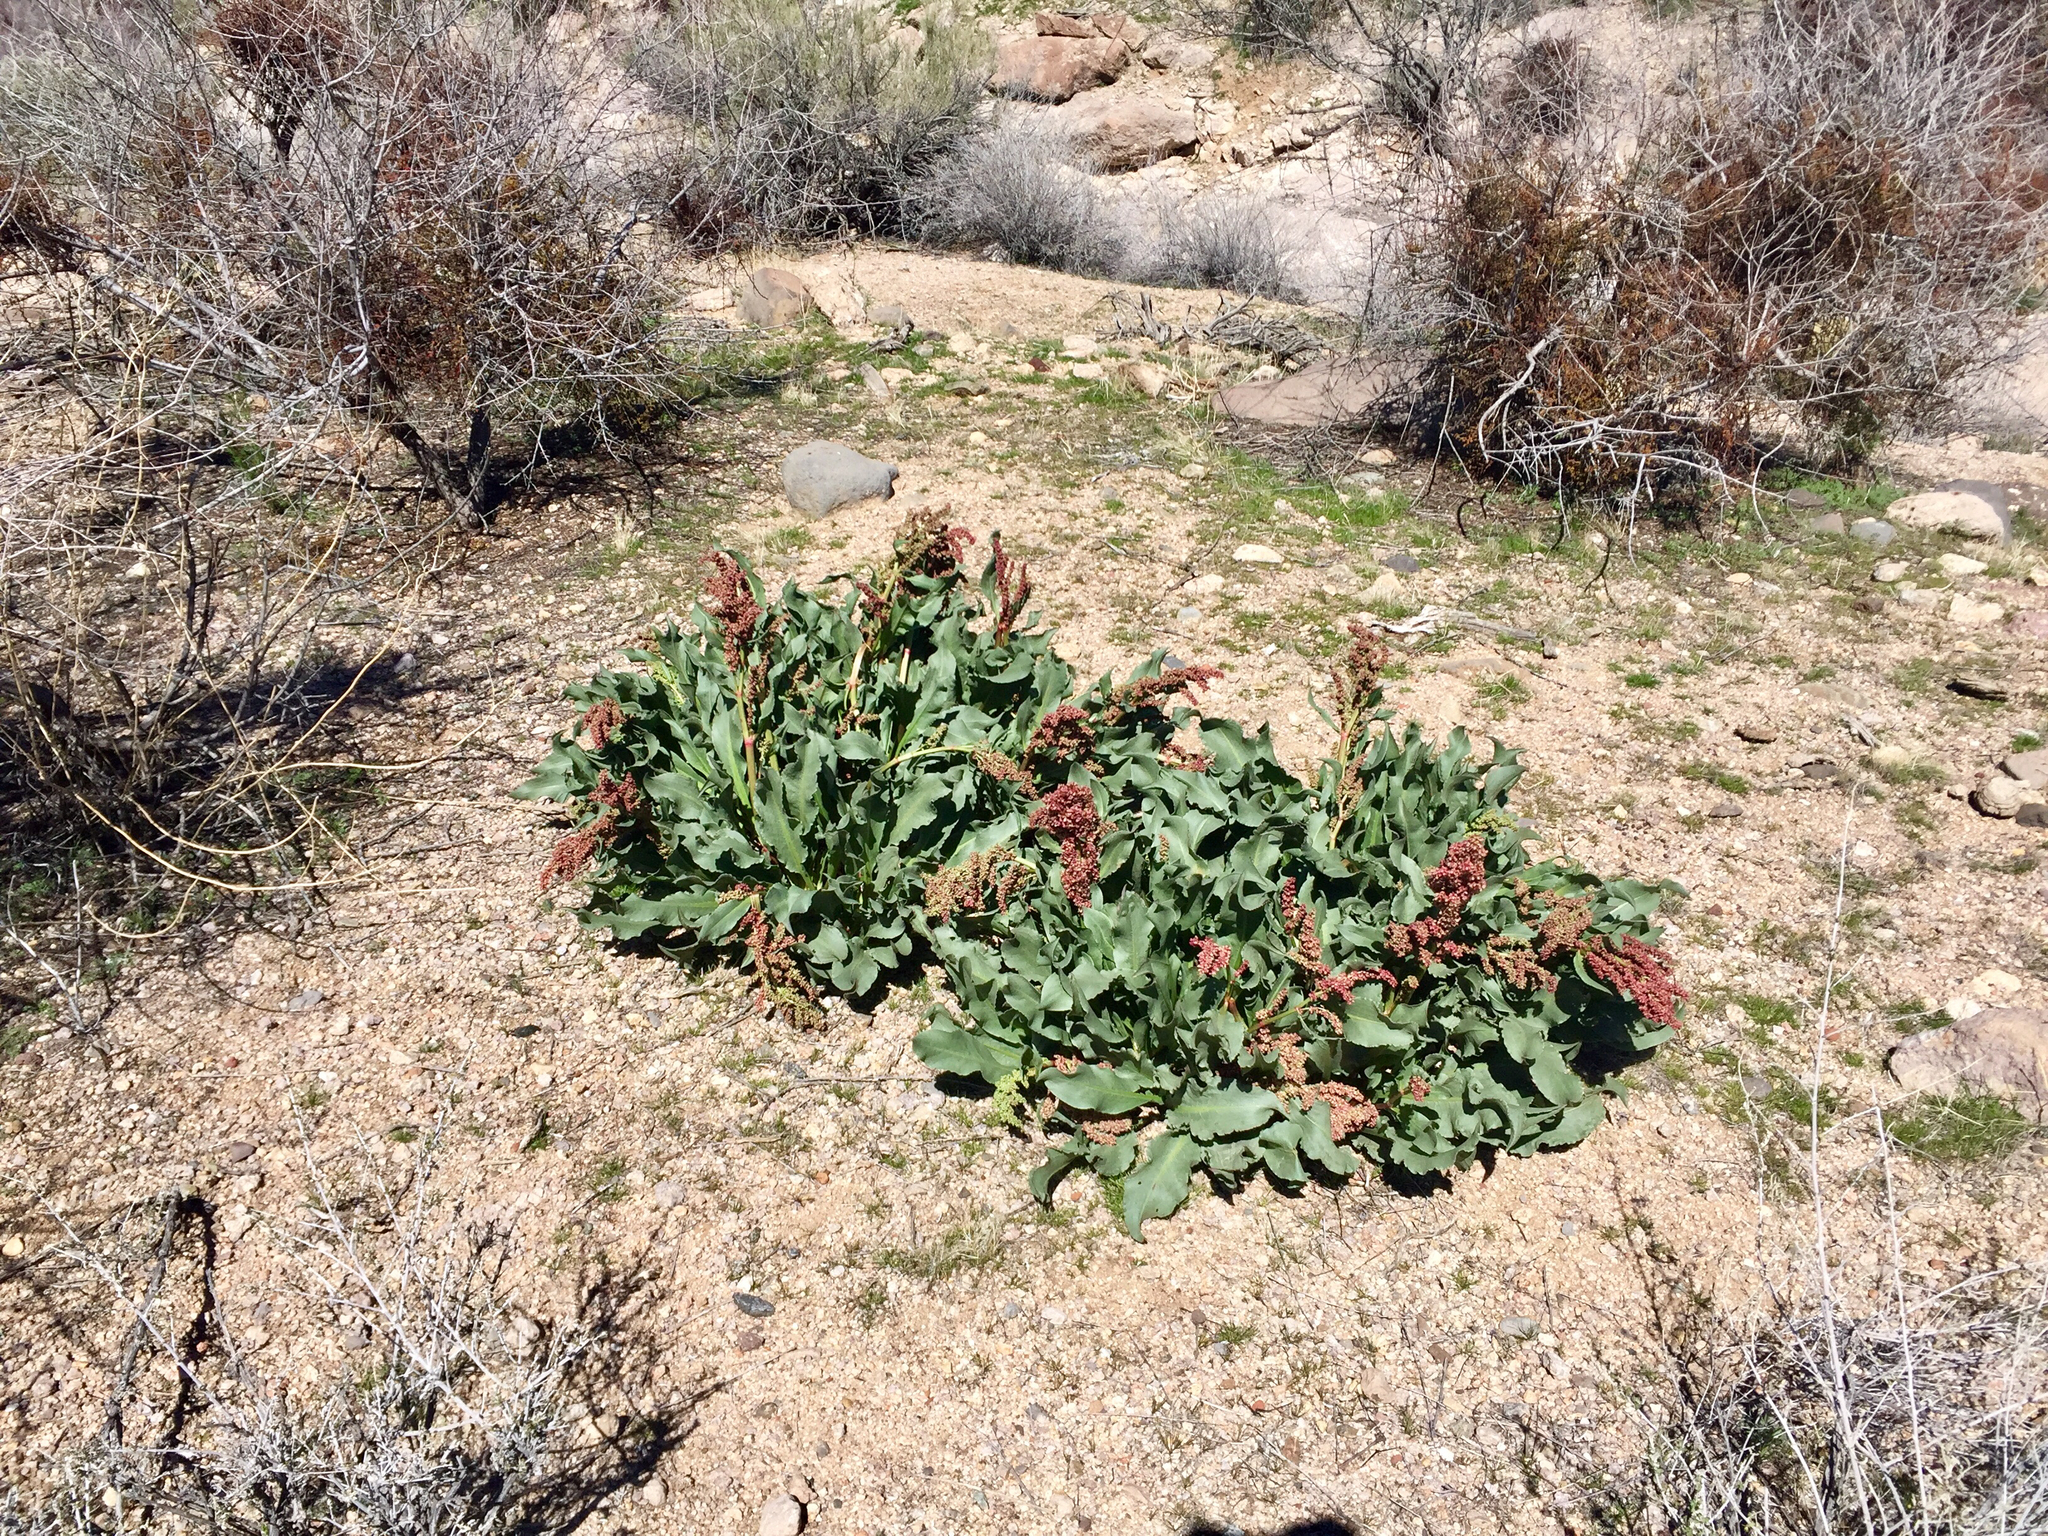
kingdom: Plantae
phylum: Tracheophyta
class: Magnoliopsida
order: Caryophyllales
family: Polygonaceae
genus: Rumex
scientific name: Rumex hymenosepalus
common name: Ganagra
